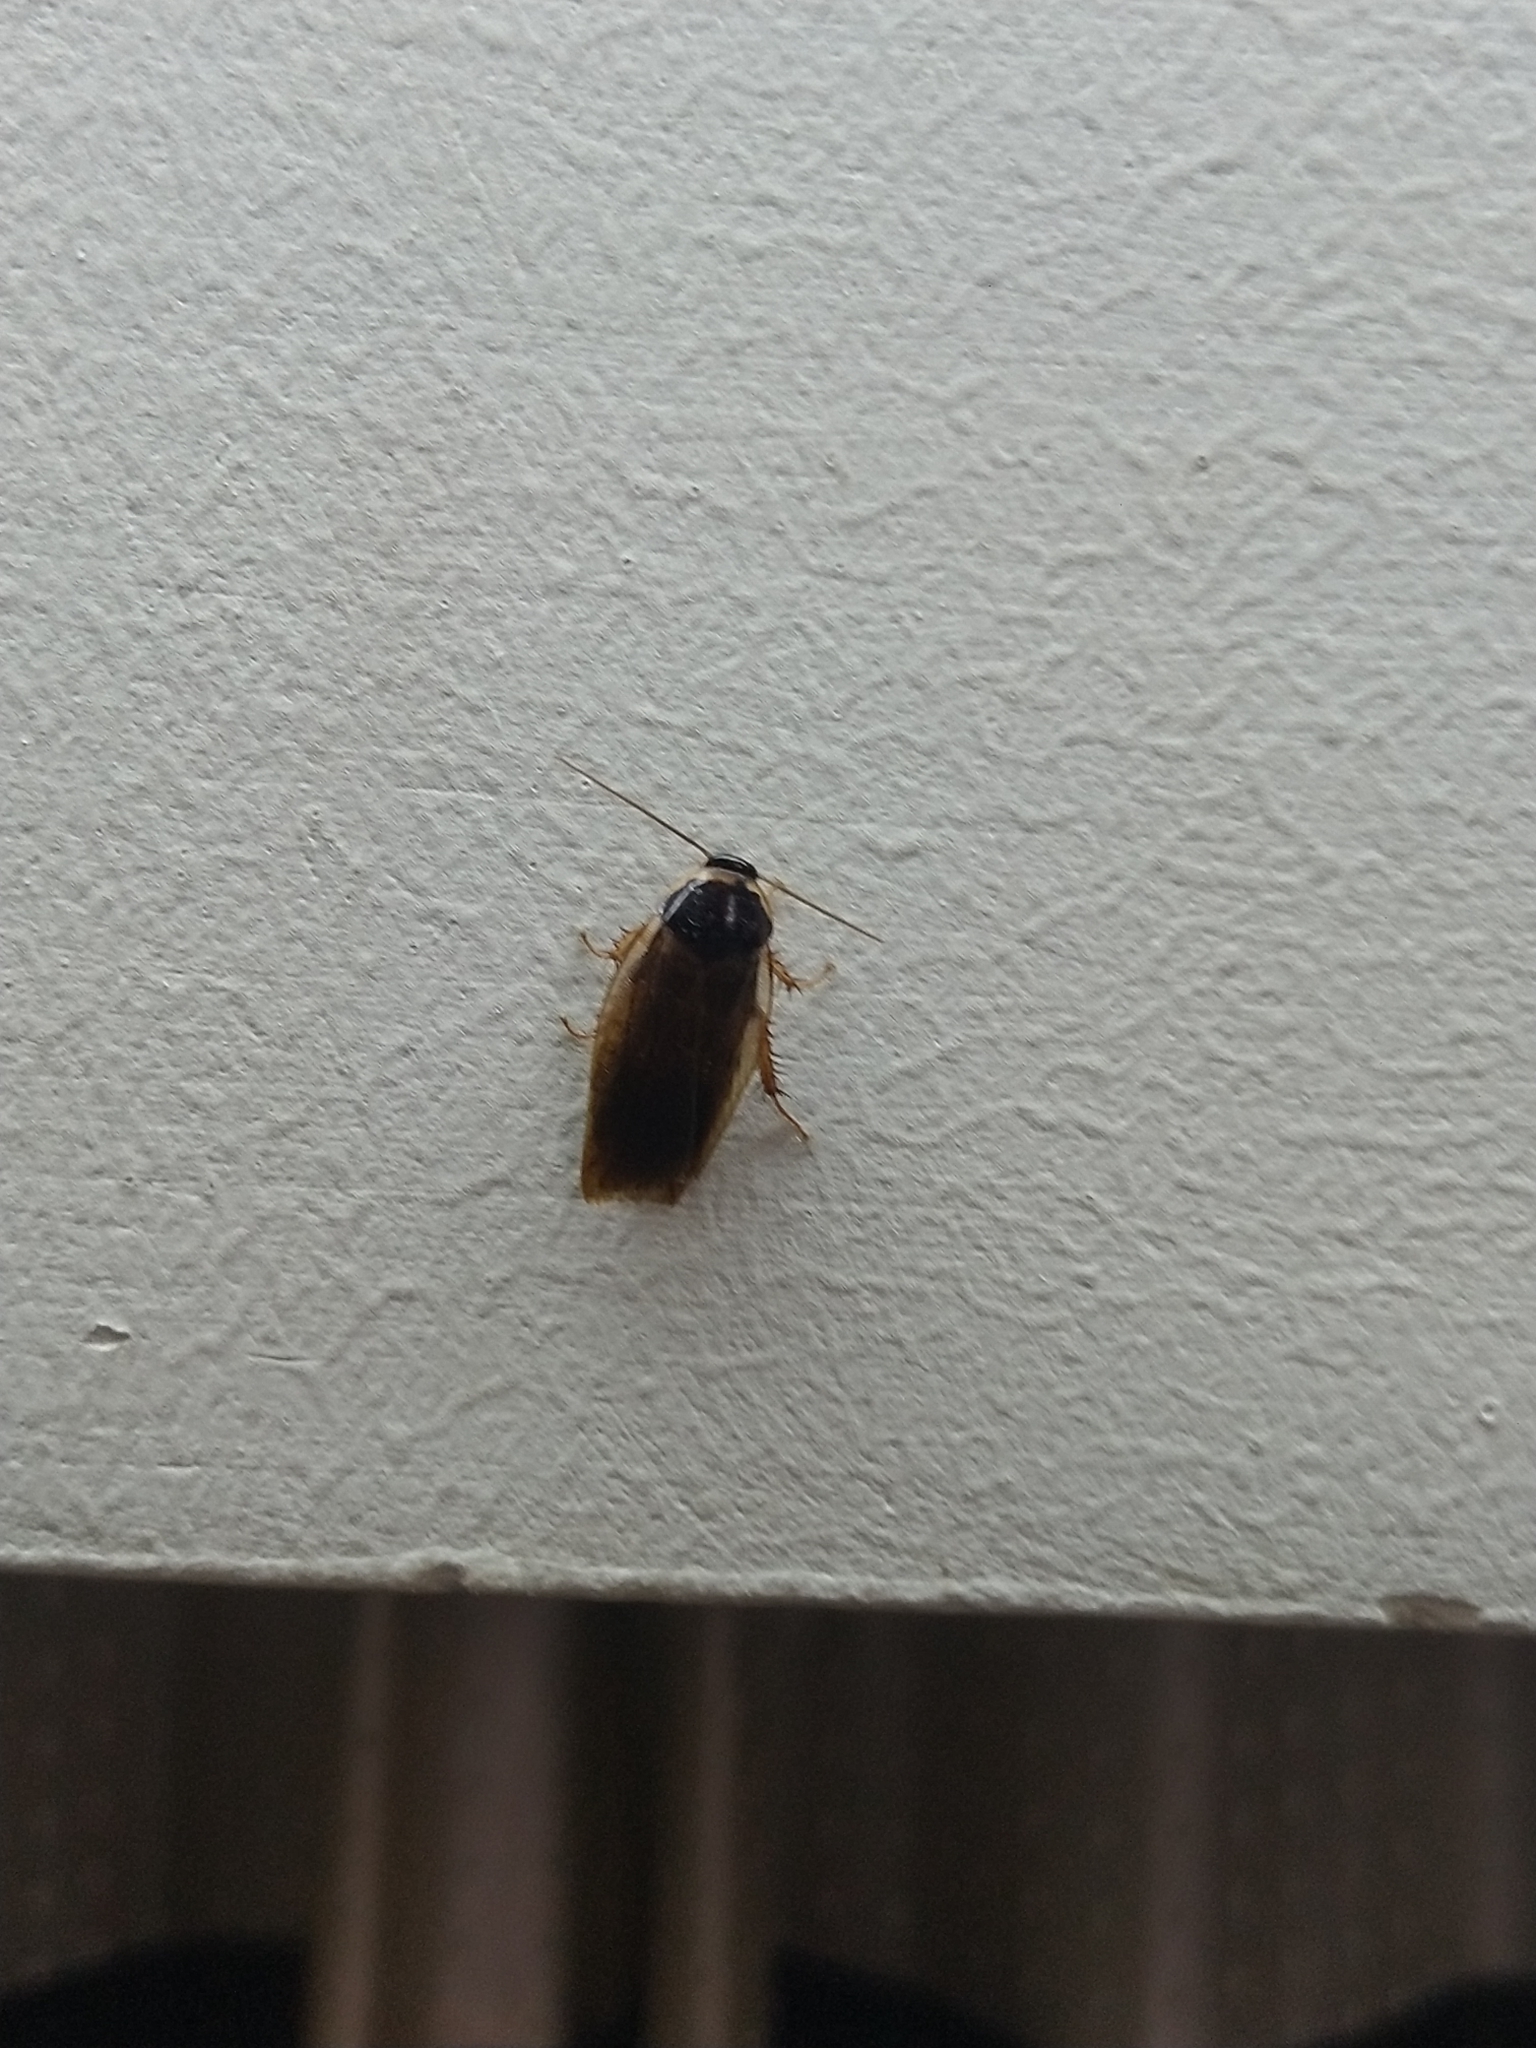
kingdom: Animalia
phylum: Arthropoda
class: Insecta
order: Blattodea
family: Blaberidae
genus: Pycnoscelus
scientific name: Pycnoscelus indicus
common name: Burrowing cockroach
